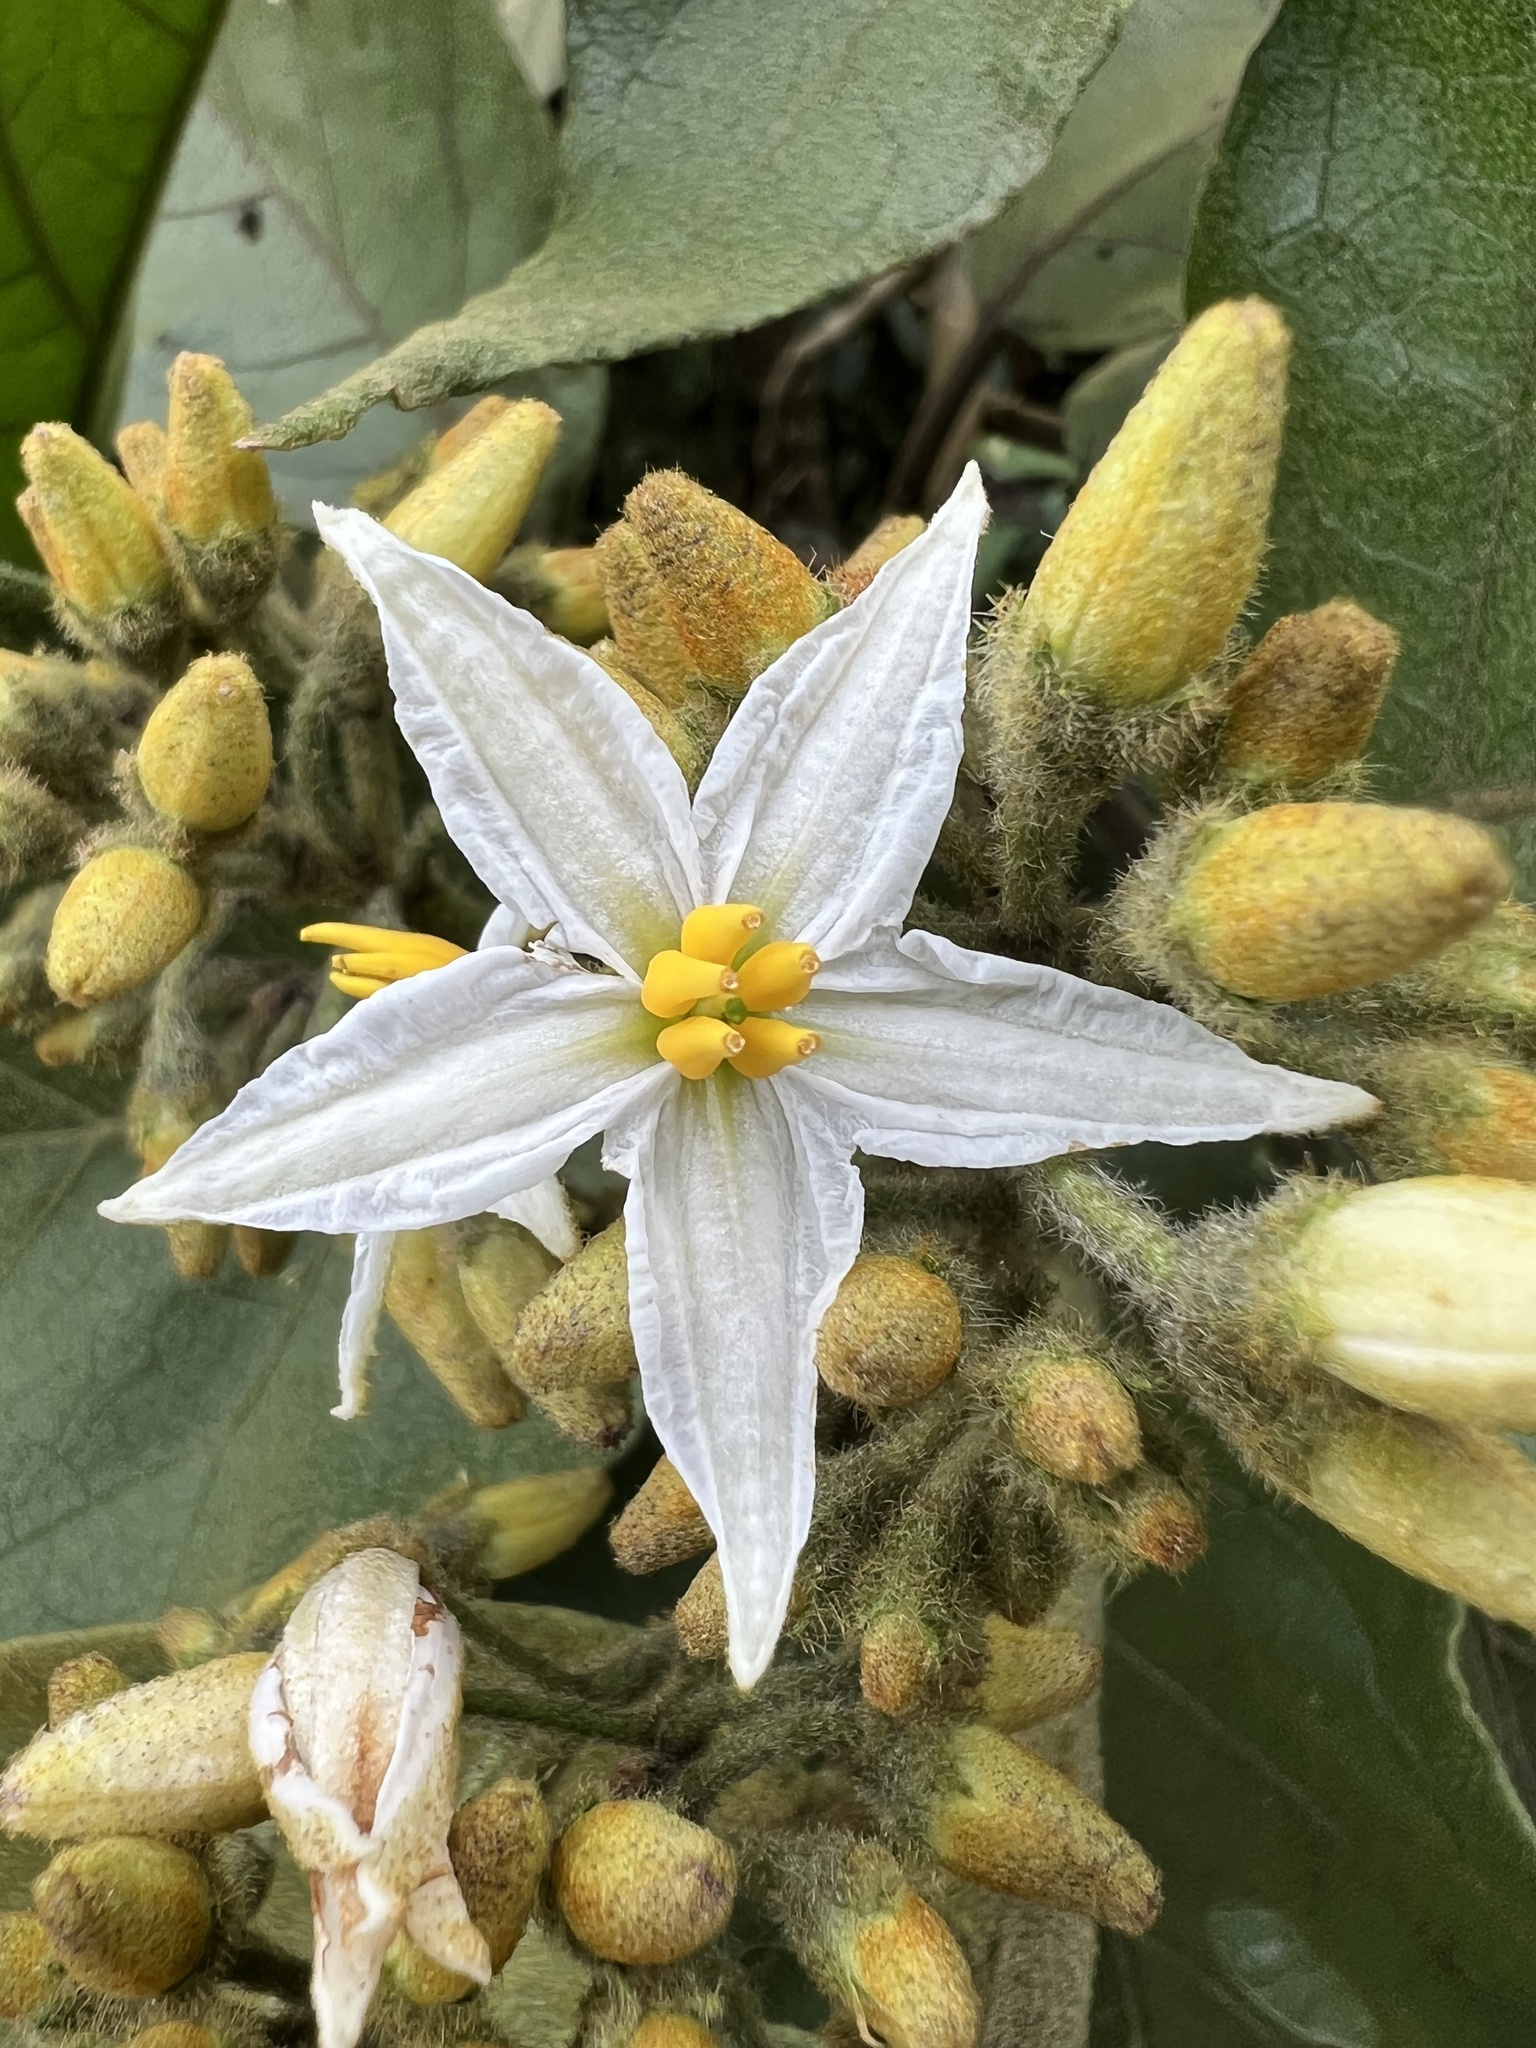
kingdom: Plantae
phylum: Tracheophyta
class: Magnoliopsida
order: Solanales
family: Solanaceae
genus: Solanum
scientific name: Solanum asperolanatum
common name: Devil's-fig
